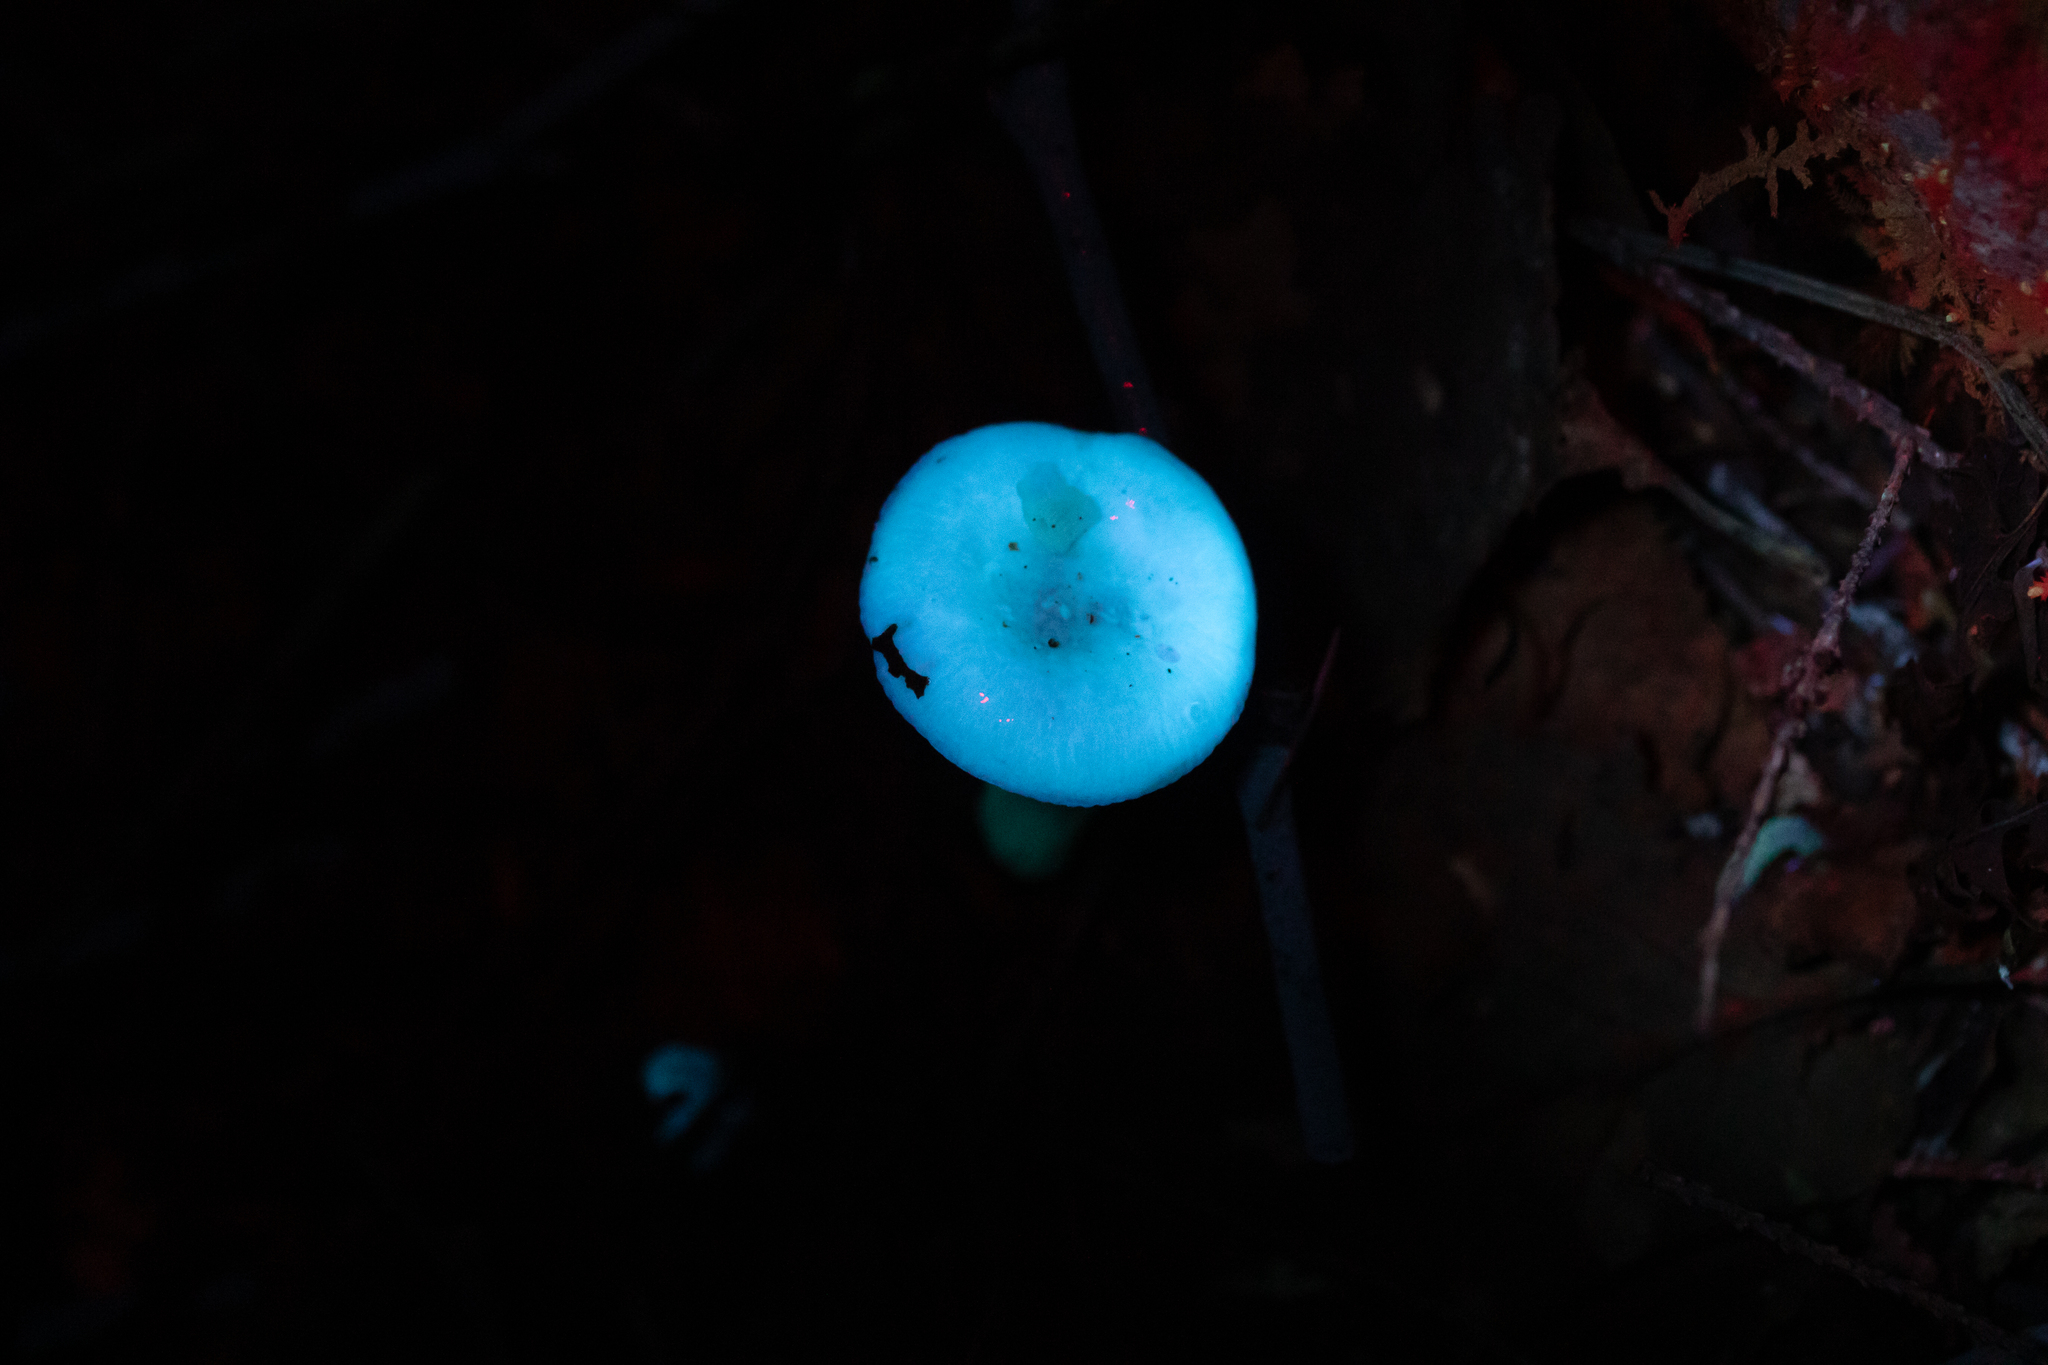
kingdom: Fungi
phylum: Basidiomycota
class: Agaricomycetes
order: Russulales
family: Russulaceae
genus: Russula
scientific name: Russula betularum
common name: Birch brittlegill
